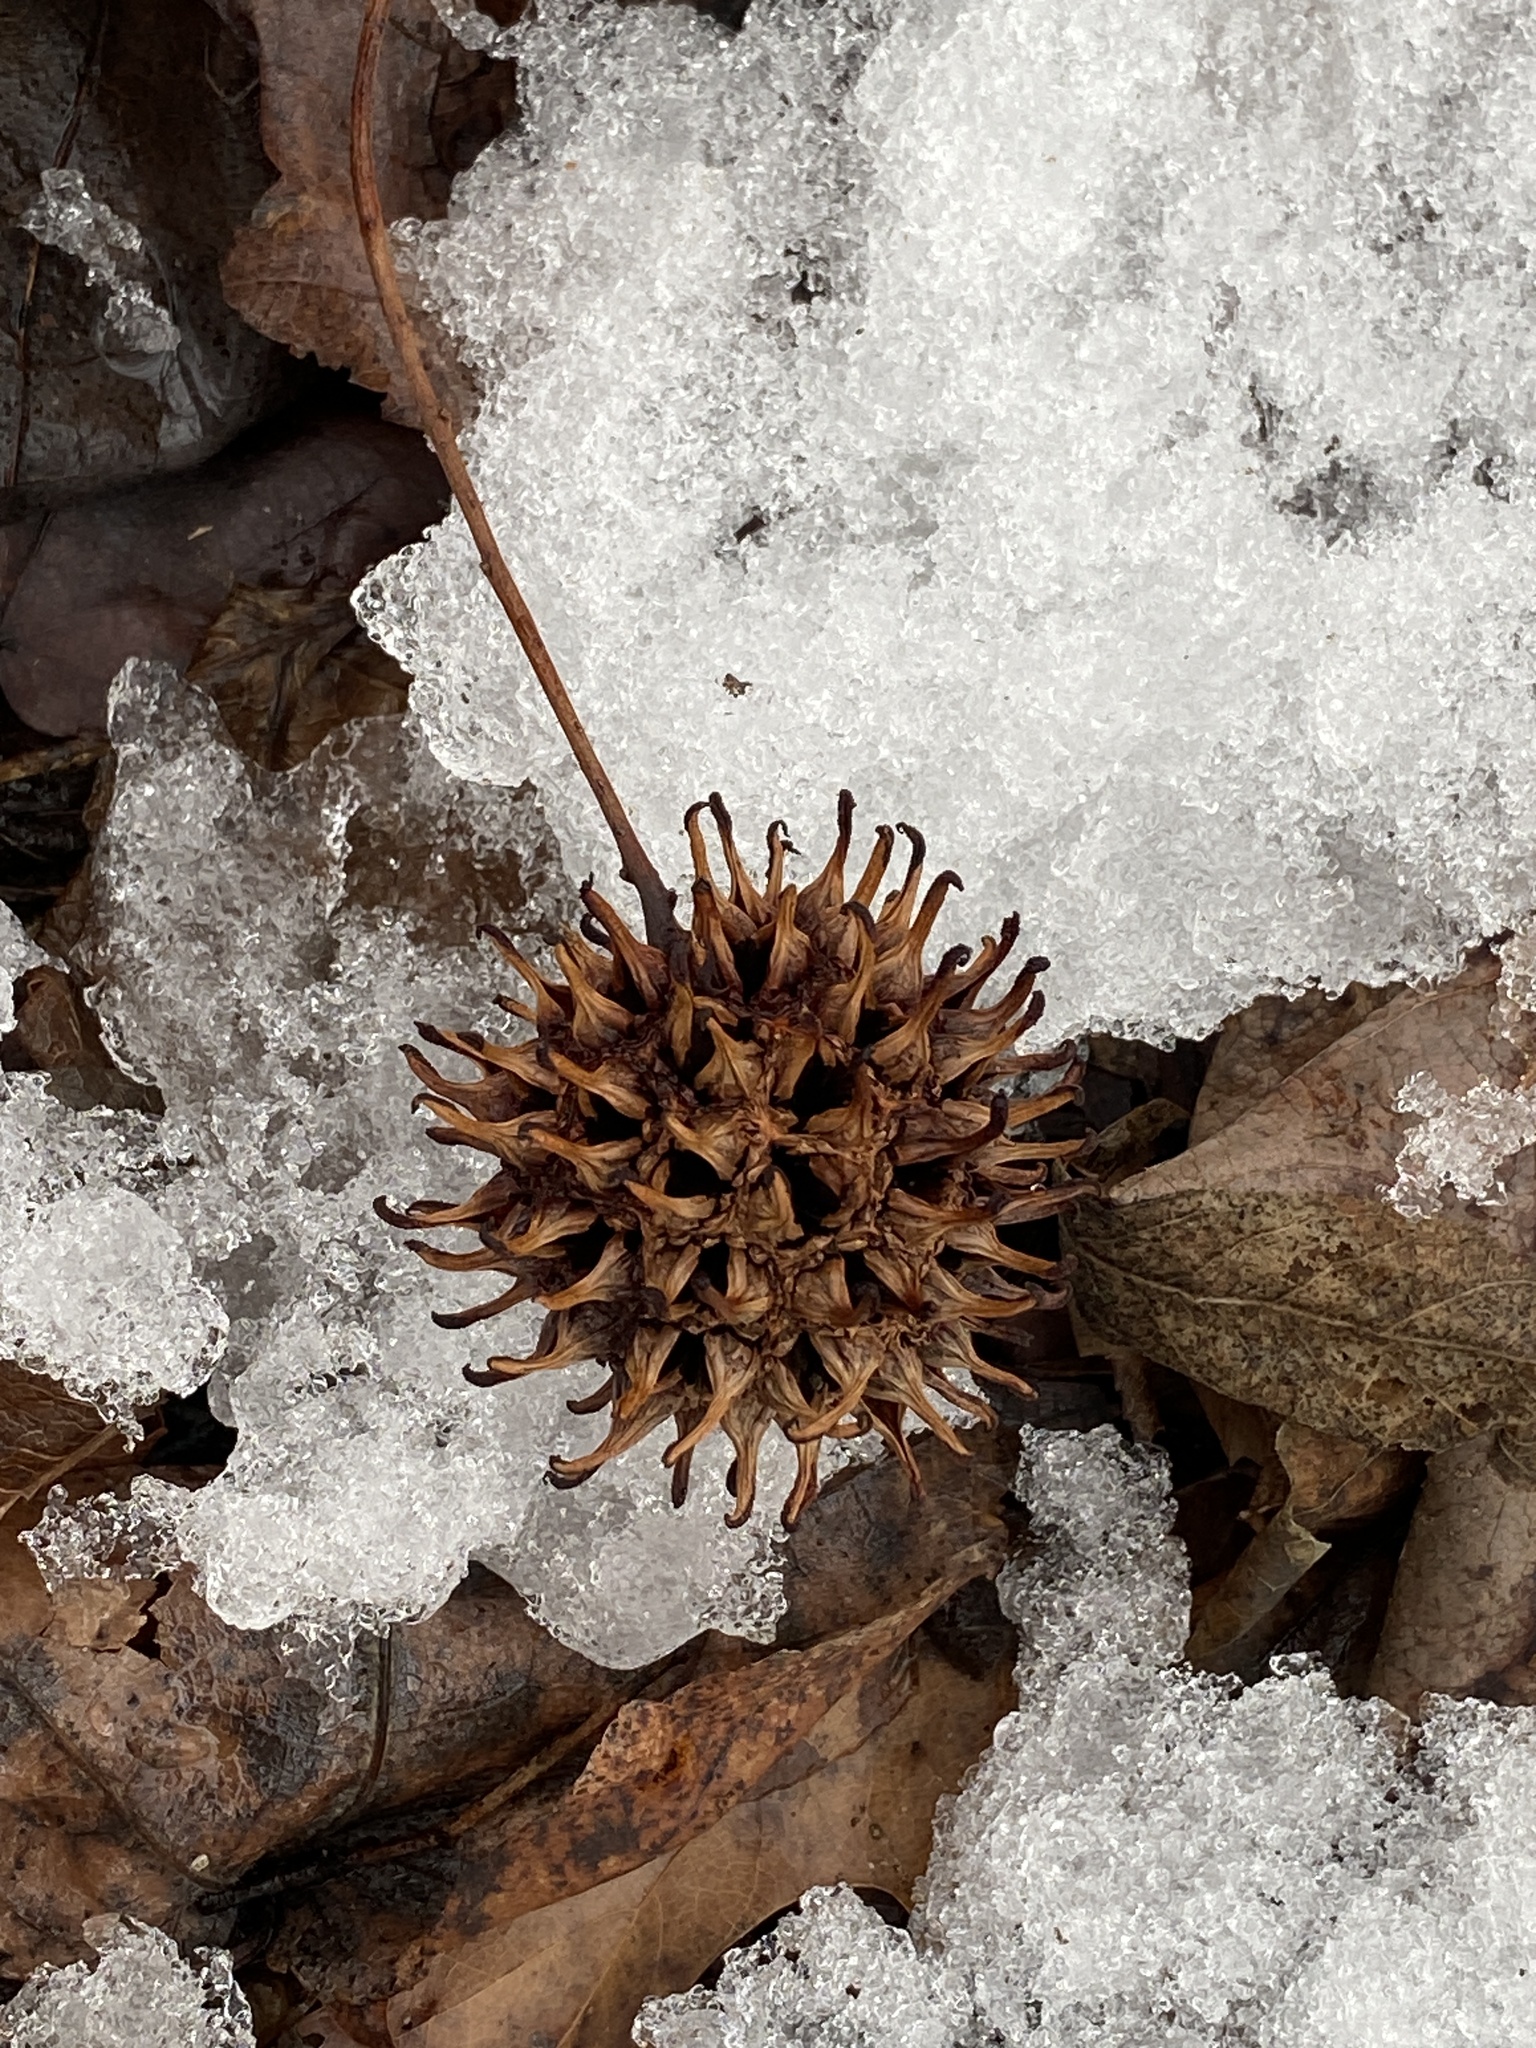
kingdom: Plantae
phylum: Tracheophyta
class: Magnoliopsida
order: Saxifragales
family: Altingiaceae
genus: Liquidambar
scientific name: Liquidambar styraciflua
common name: Sweet gum
